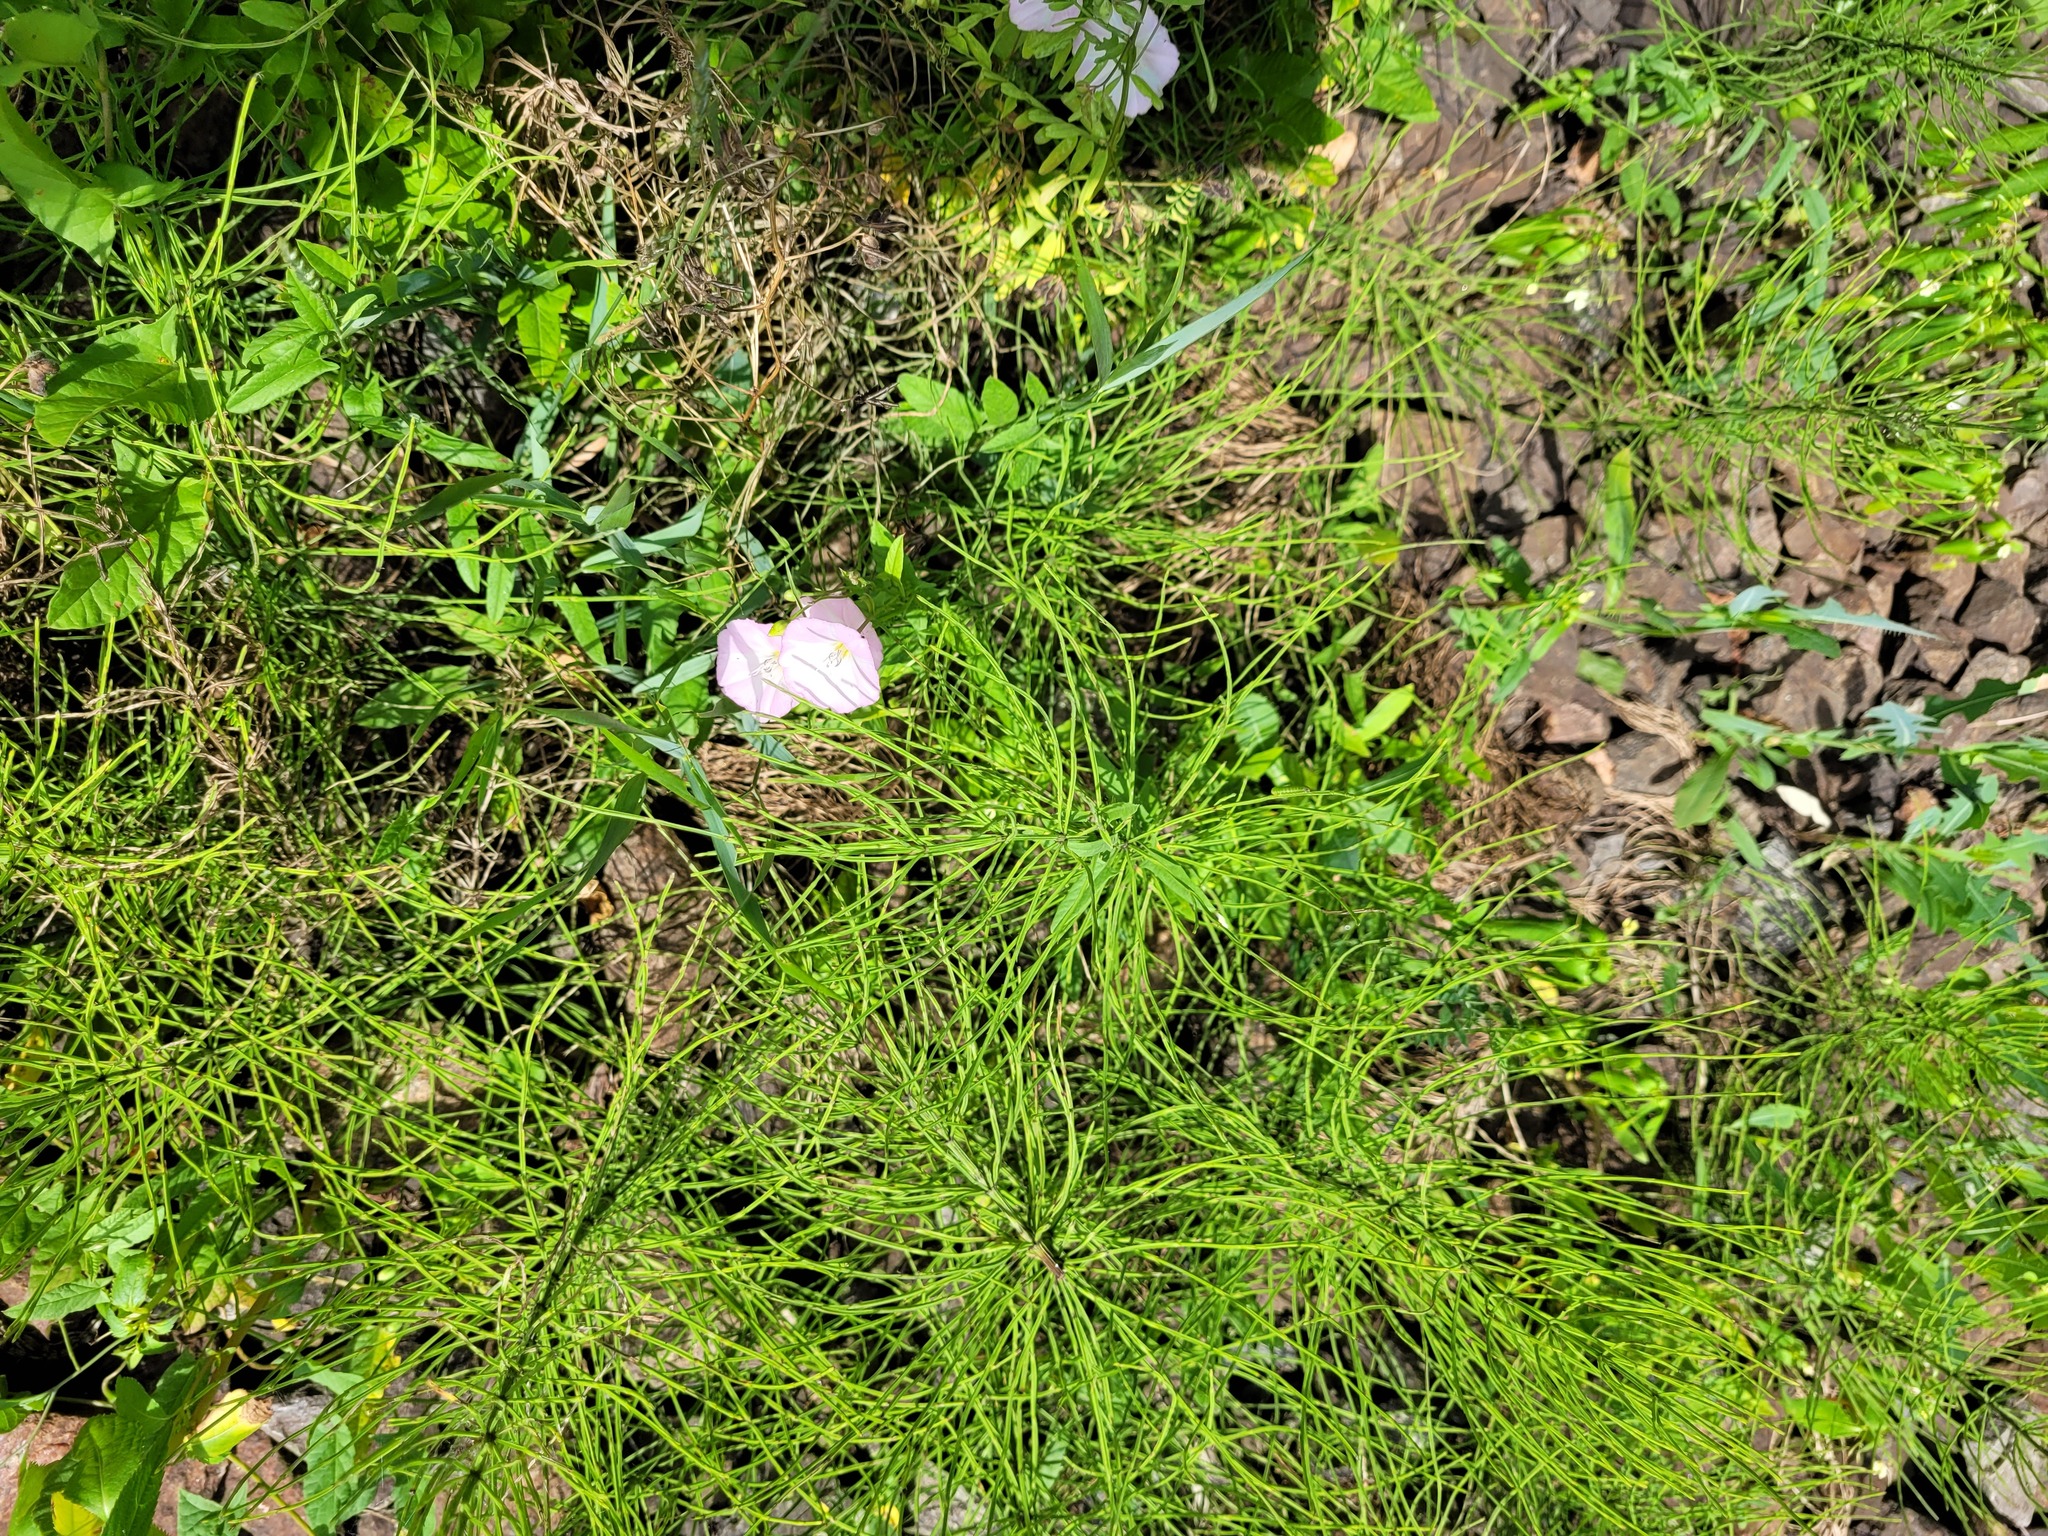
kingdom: Plantae
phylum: Tracheophyta
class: Magnoliopsida
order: Solanales
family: Convolvulaceae
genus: Convolvulus
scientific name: Convolvulus arvensis
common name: Field bindweed
